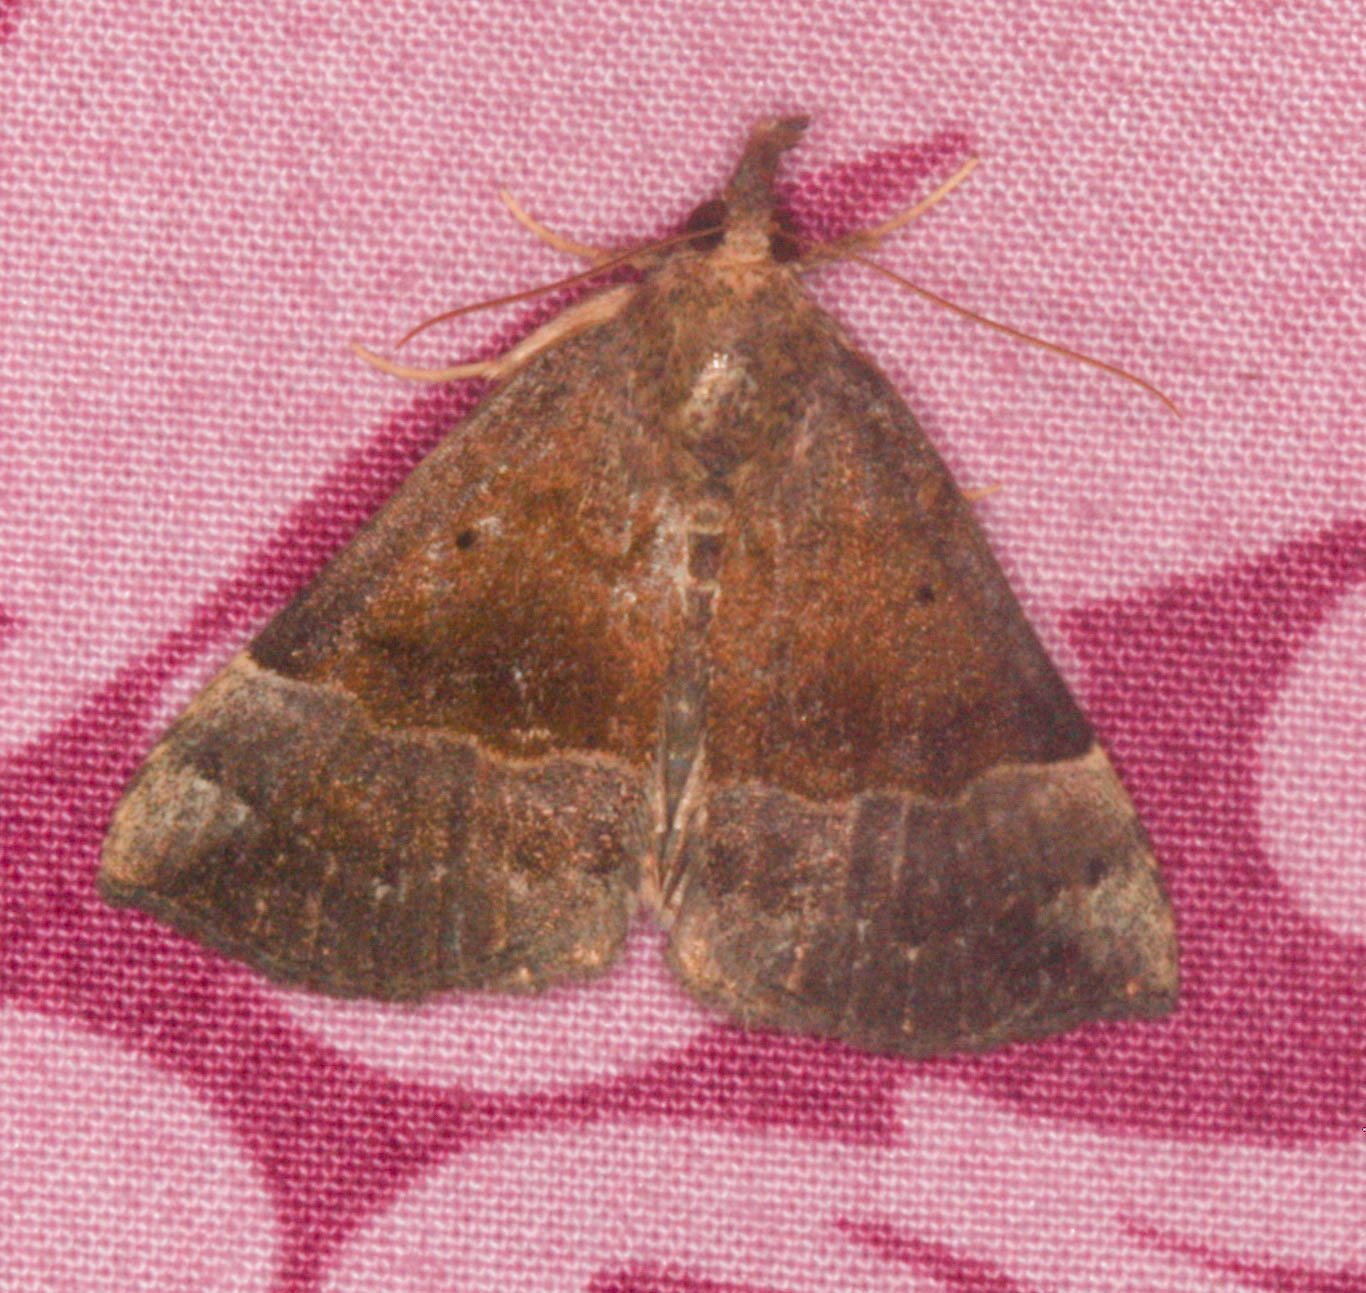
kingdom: Animalia
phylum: Arthropoda
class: Insecta
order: Lepidoptera
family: Erebidae
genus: Hypena
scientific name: Hypena madefactalis
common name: Gray-edged snout
